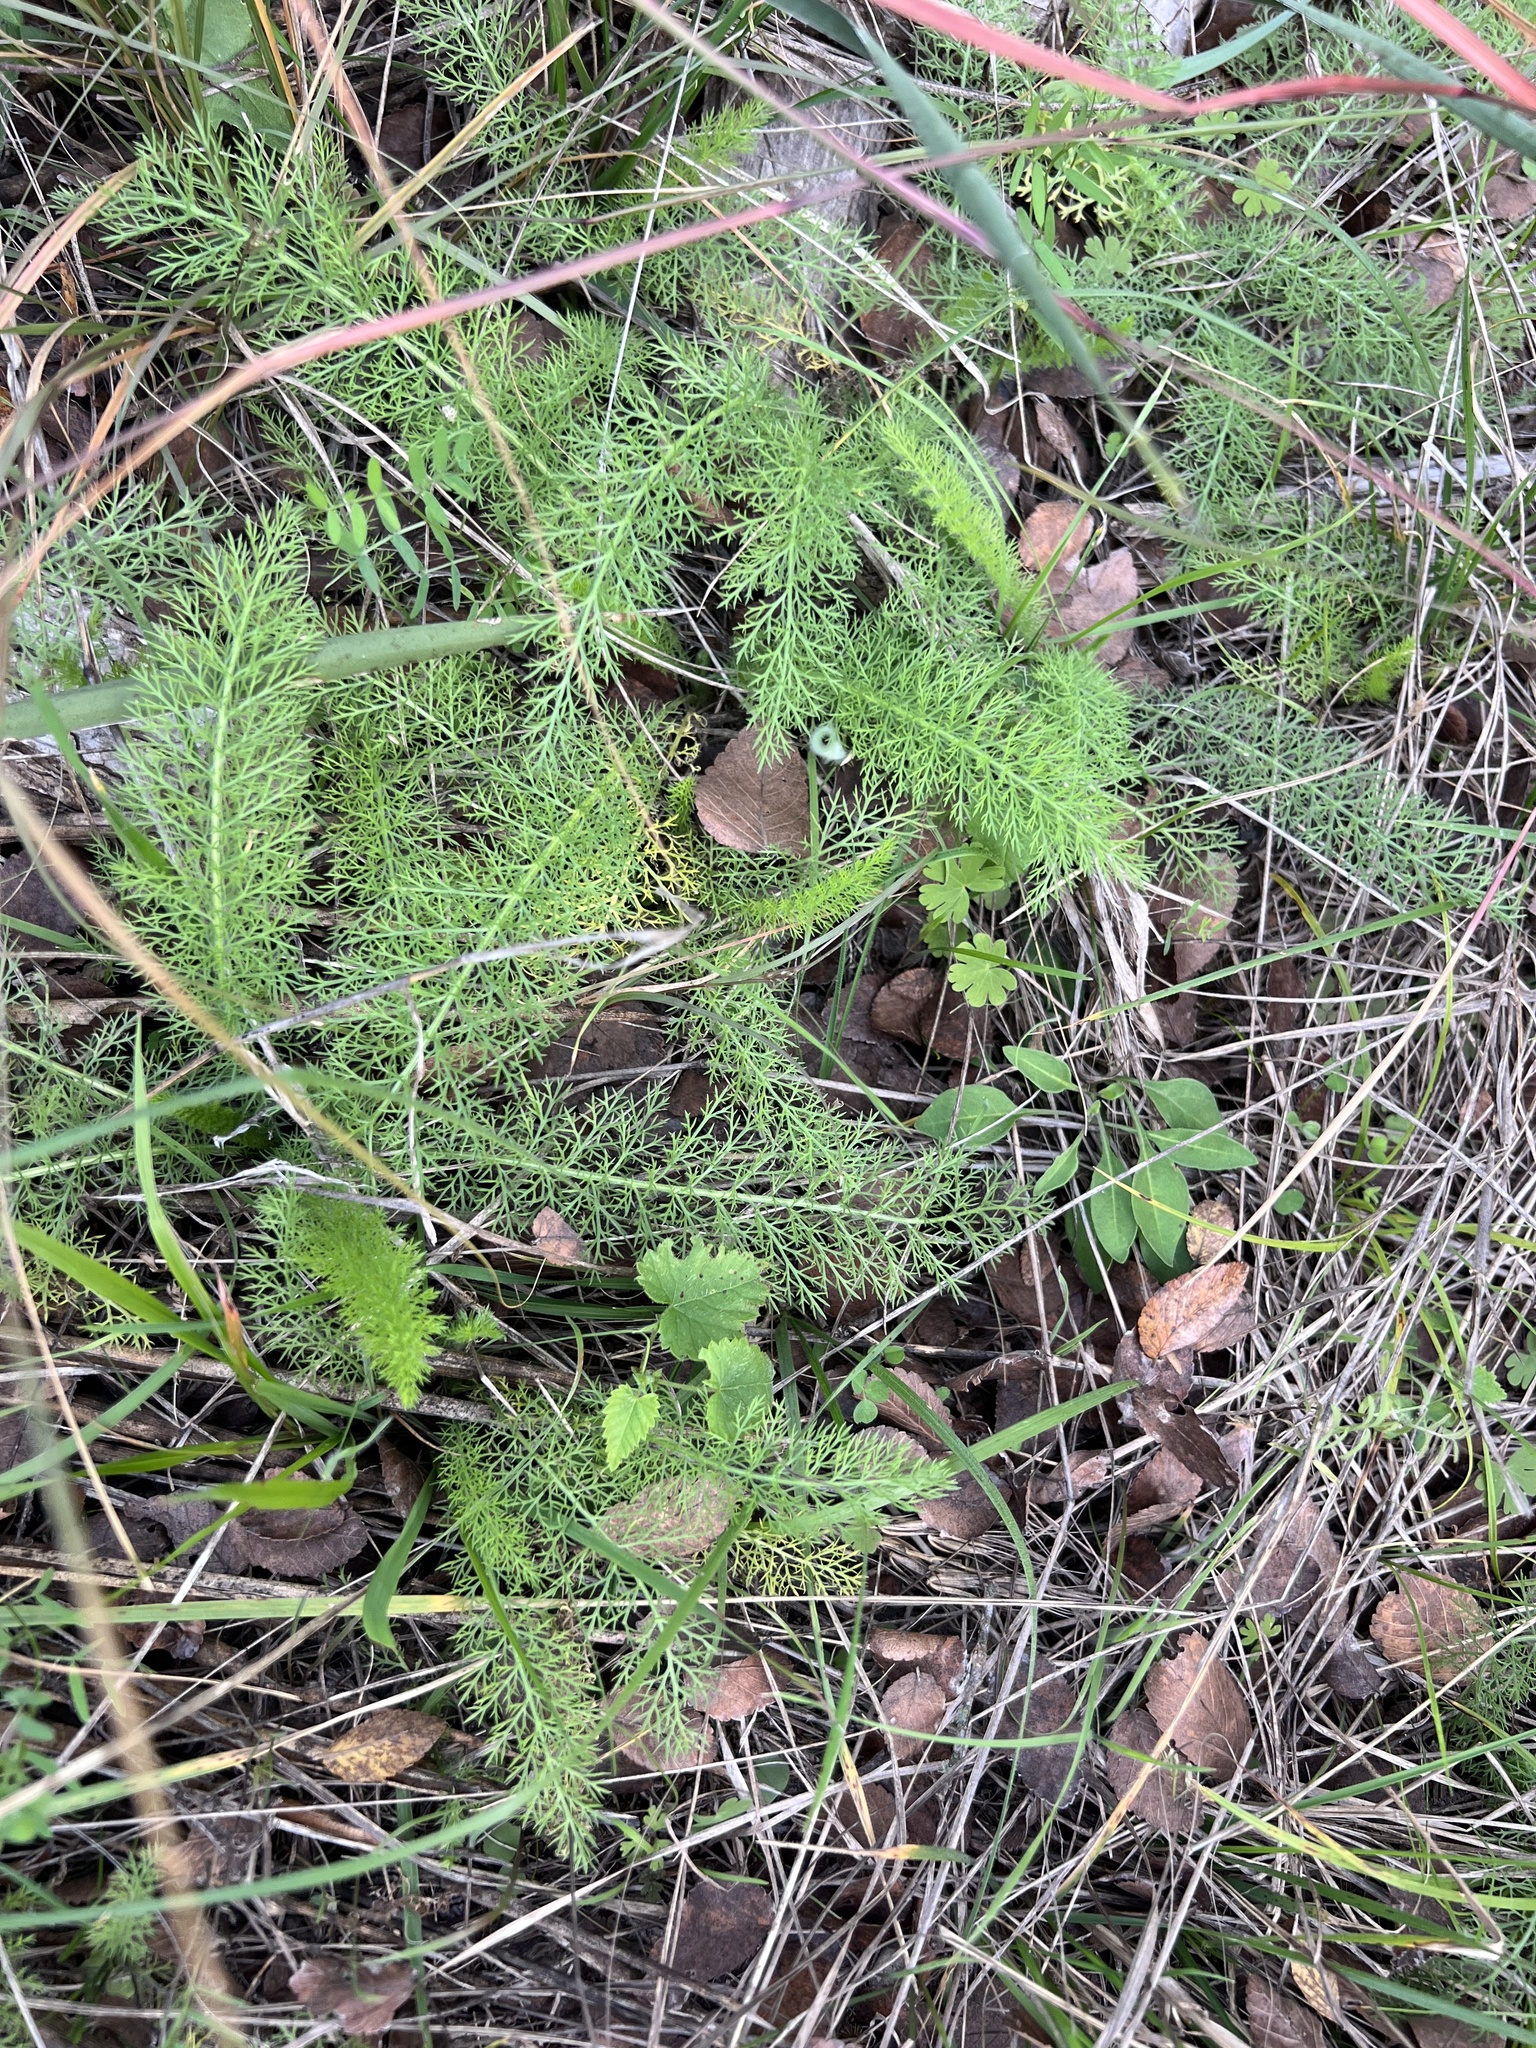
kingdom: Plantae
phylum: Tracheophyta
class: Magnoliopsida
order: Asterales
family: Asteraceae
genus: Achillea
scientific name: Achillea millefolium
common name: Yarrow
